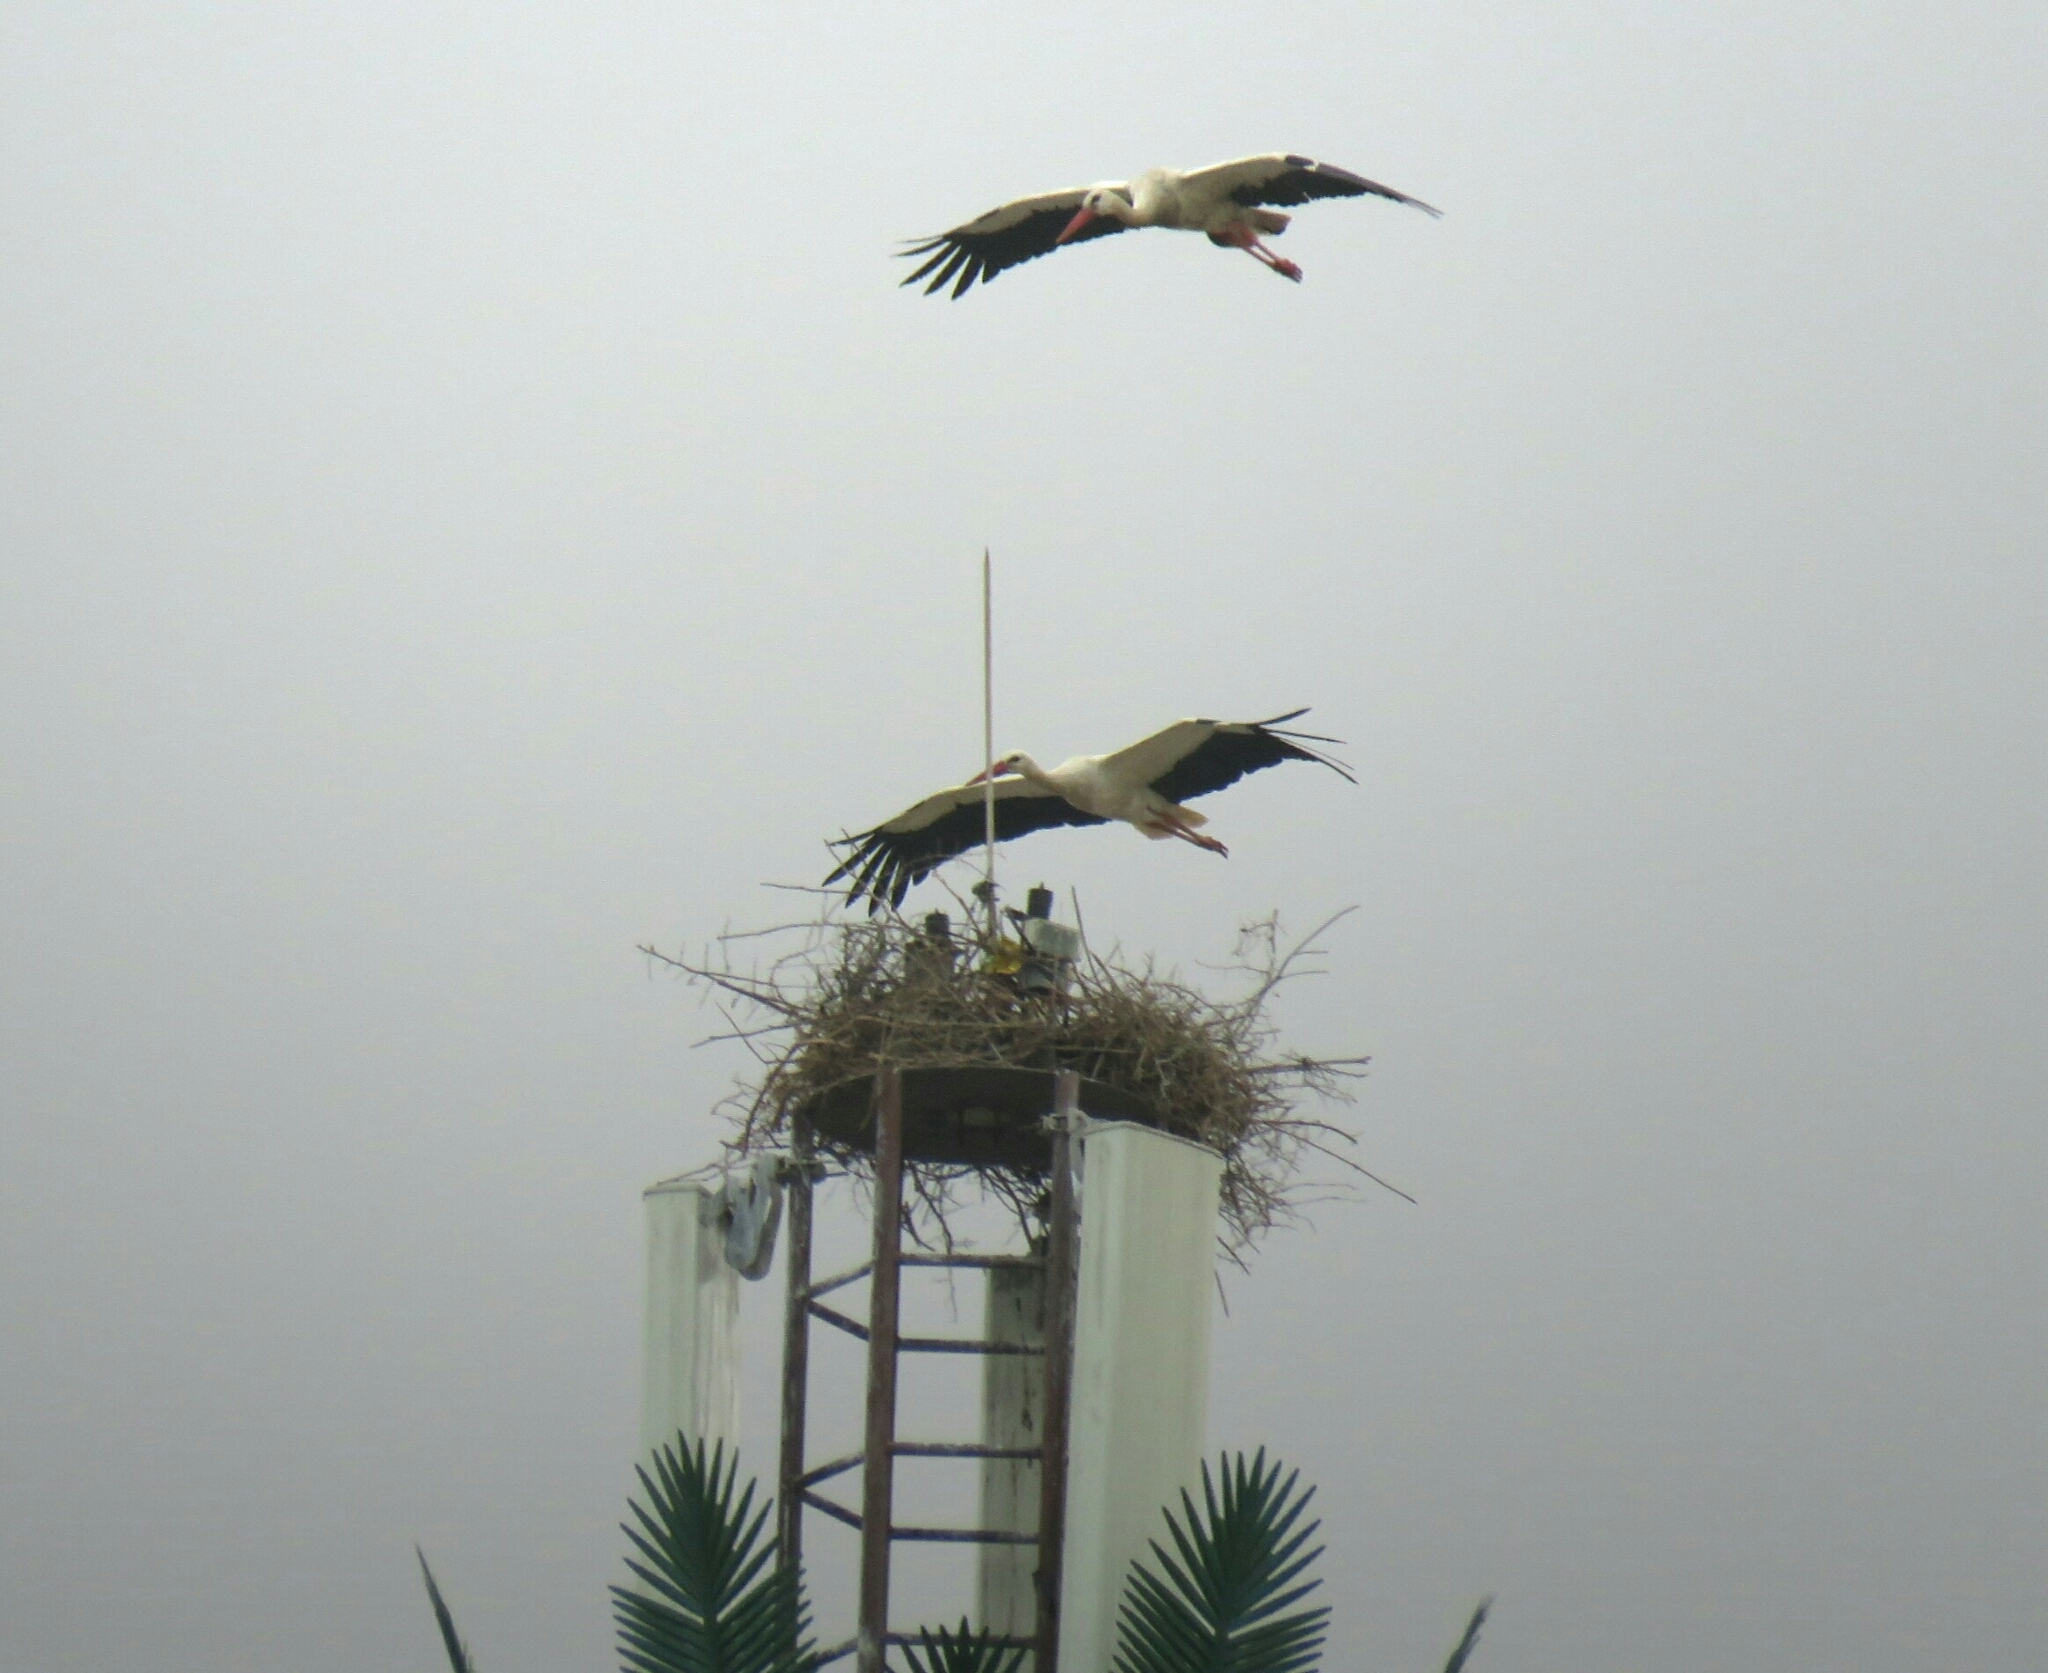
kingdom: Animalia
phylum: Chordata
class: Aves
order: Ciconiiformes
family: Ciconiidae
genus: Ciconia
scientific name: Ciconia ciconia
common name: White stork
